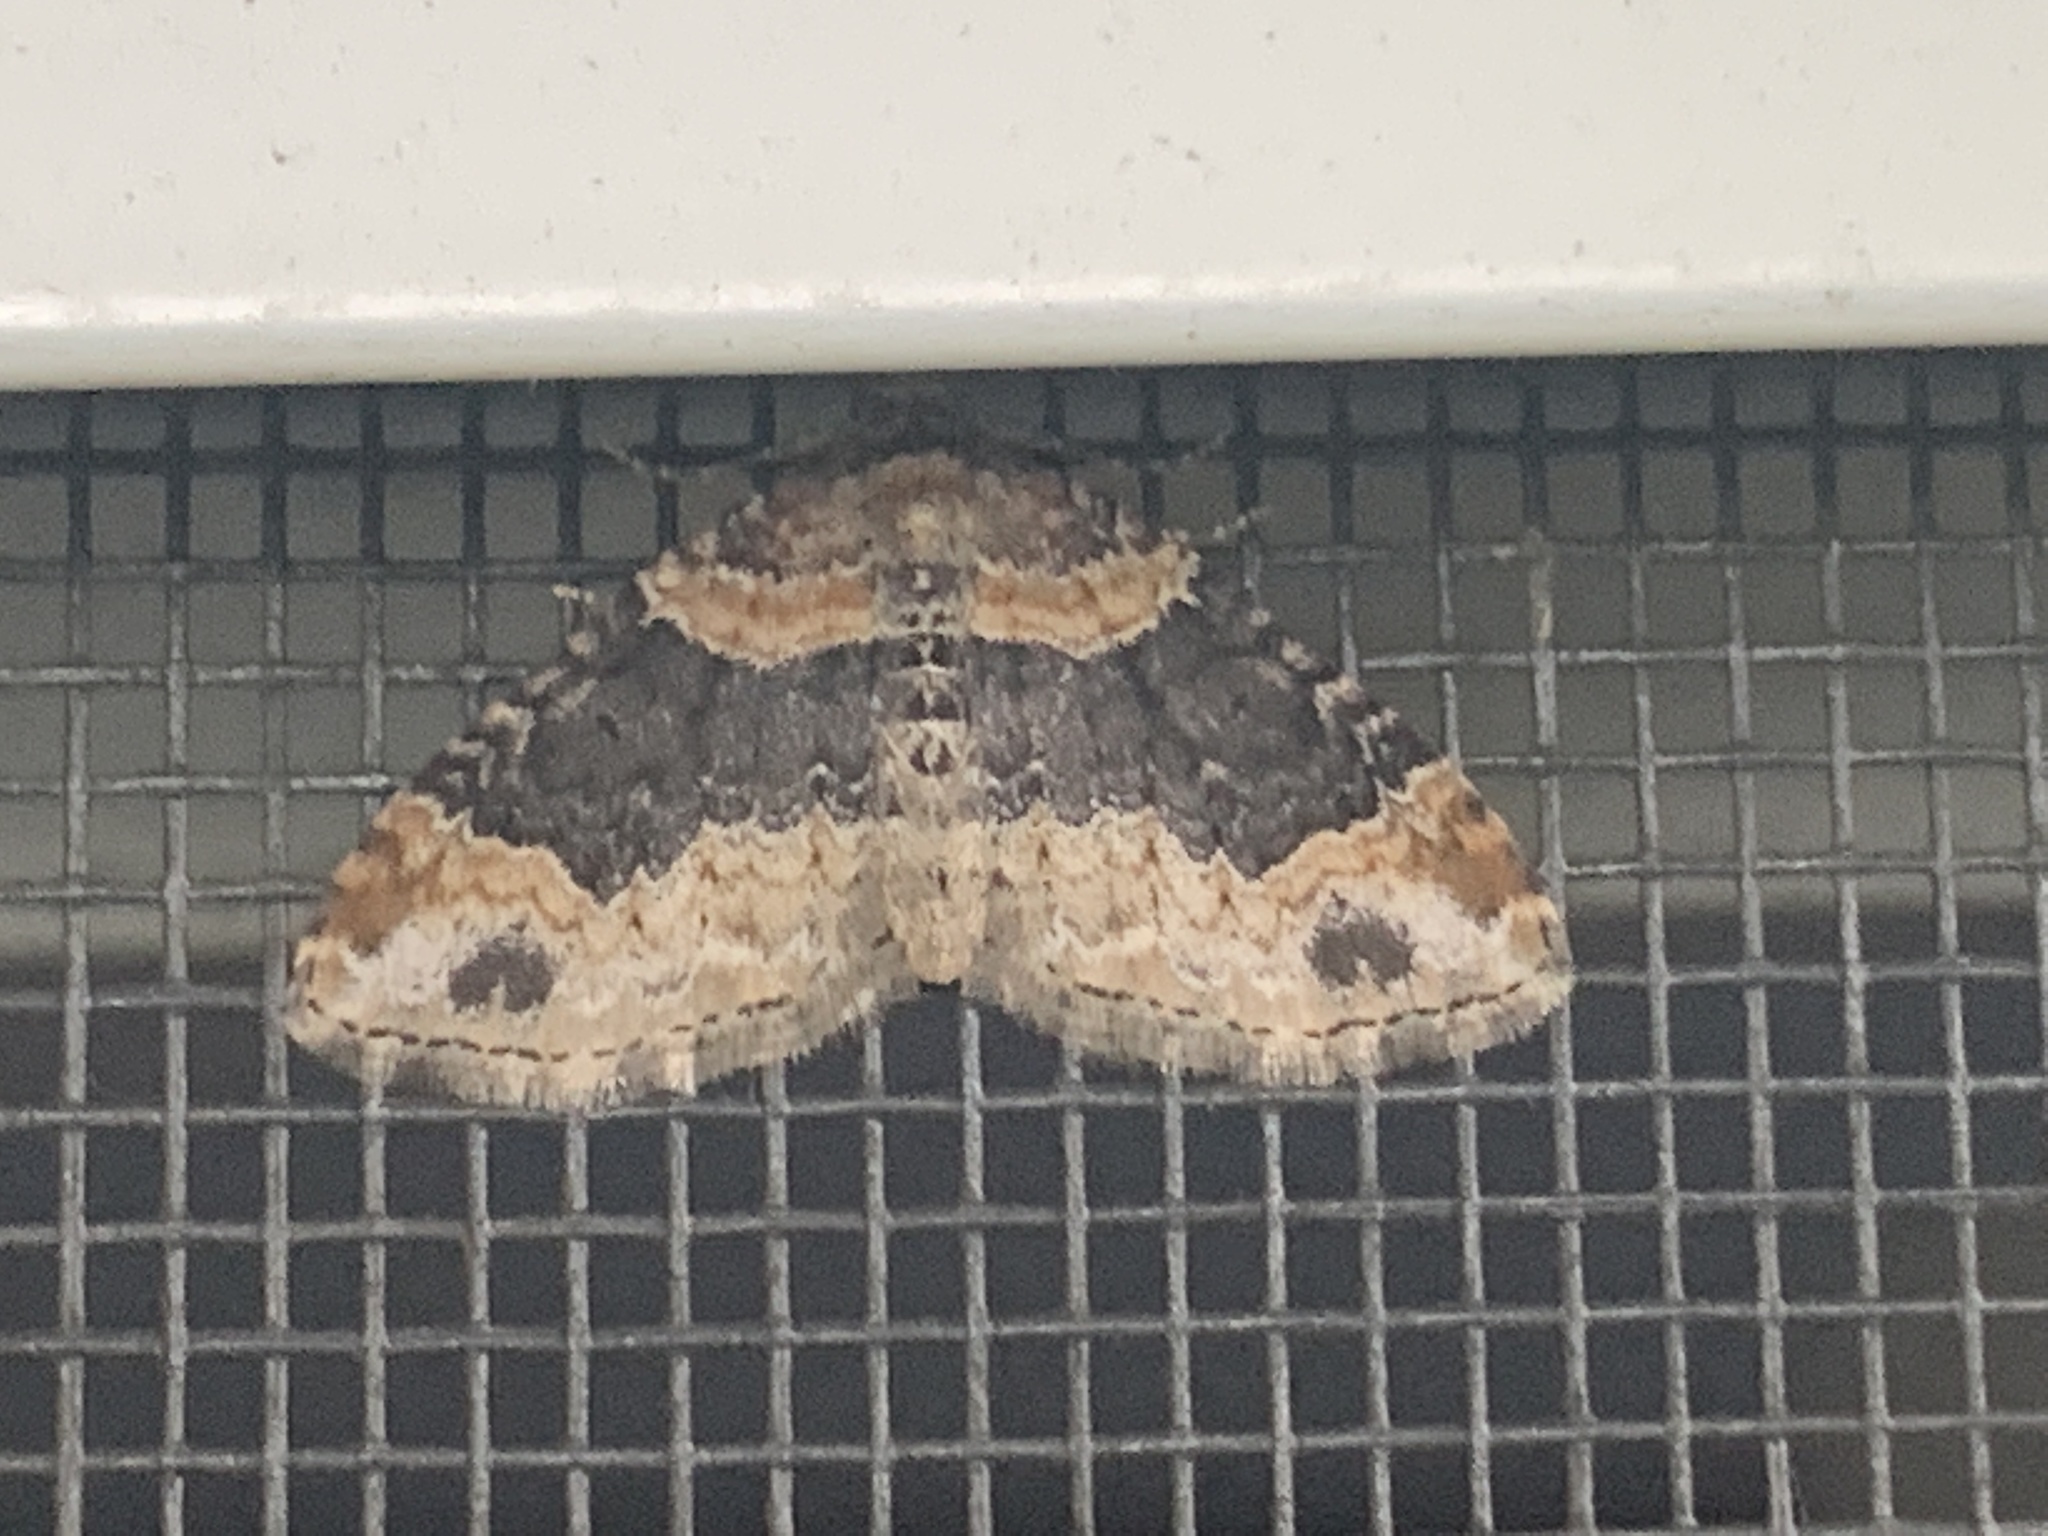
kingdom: Animalia
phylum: Arthropoda
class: Insecta
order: Lepidoptera
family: Geometridae
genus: Xanthorhoe
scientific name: Xanthorhoe ferrugata
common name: Dark-barred twin-spot carpet
